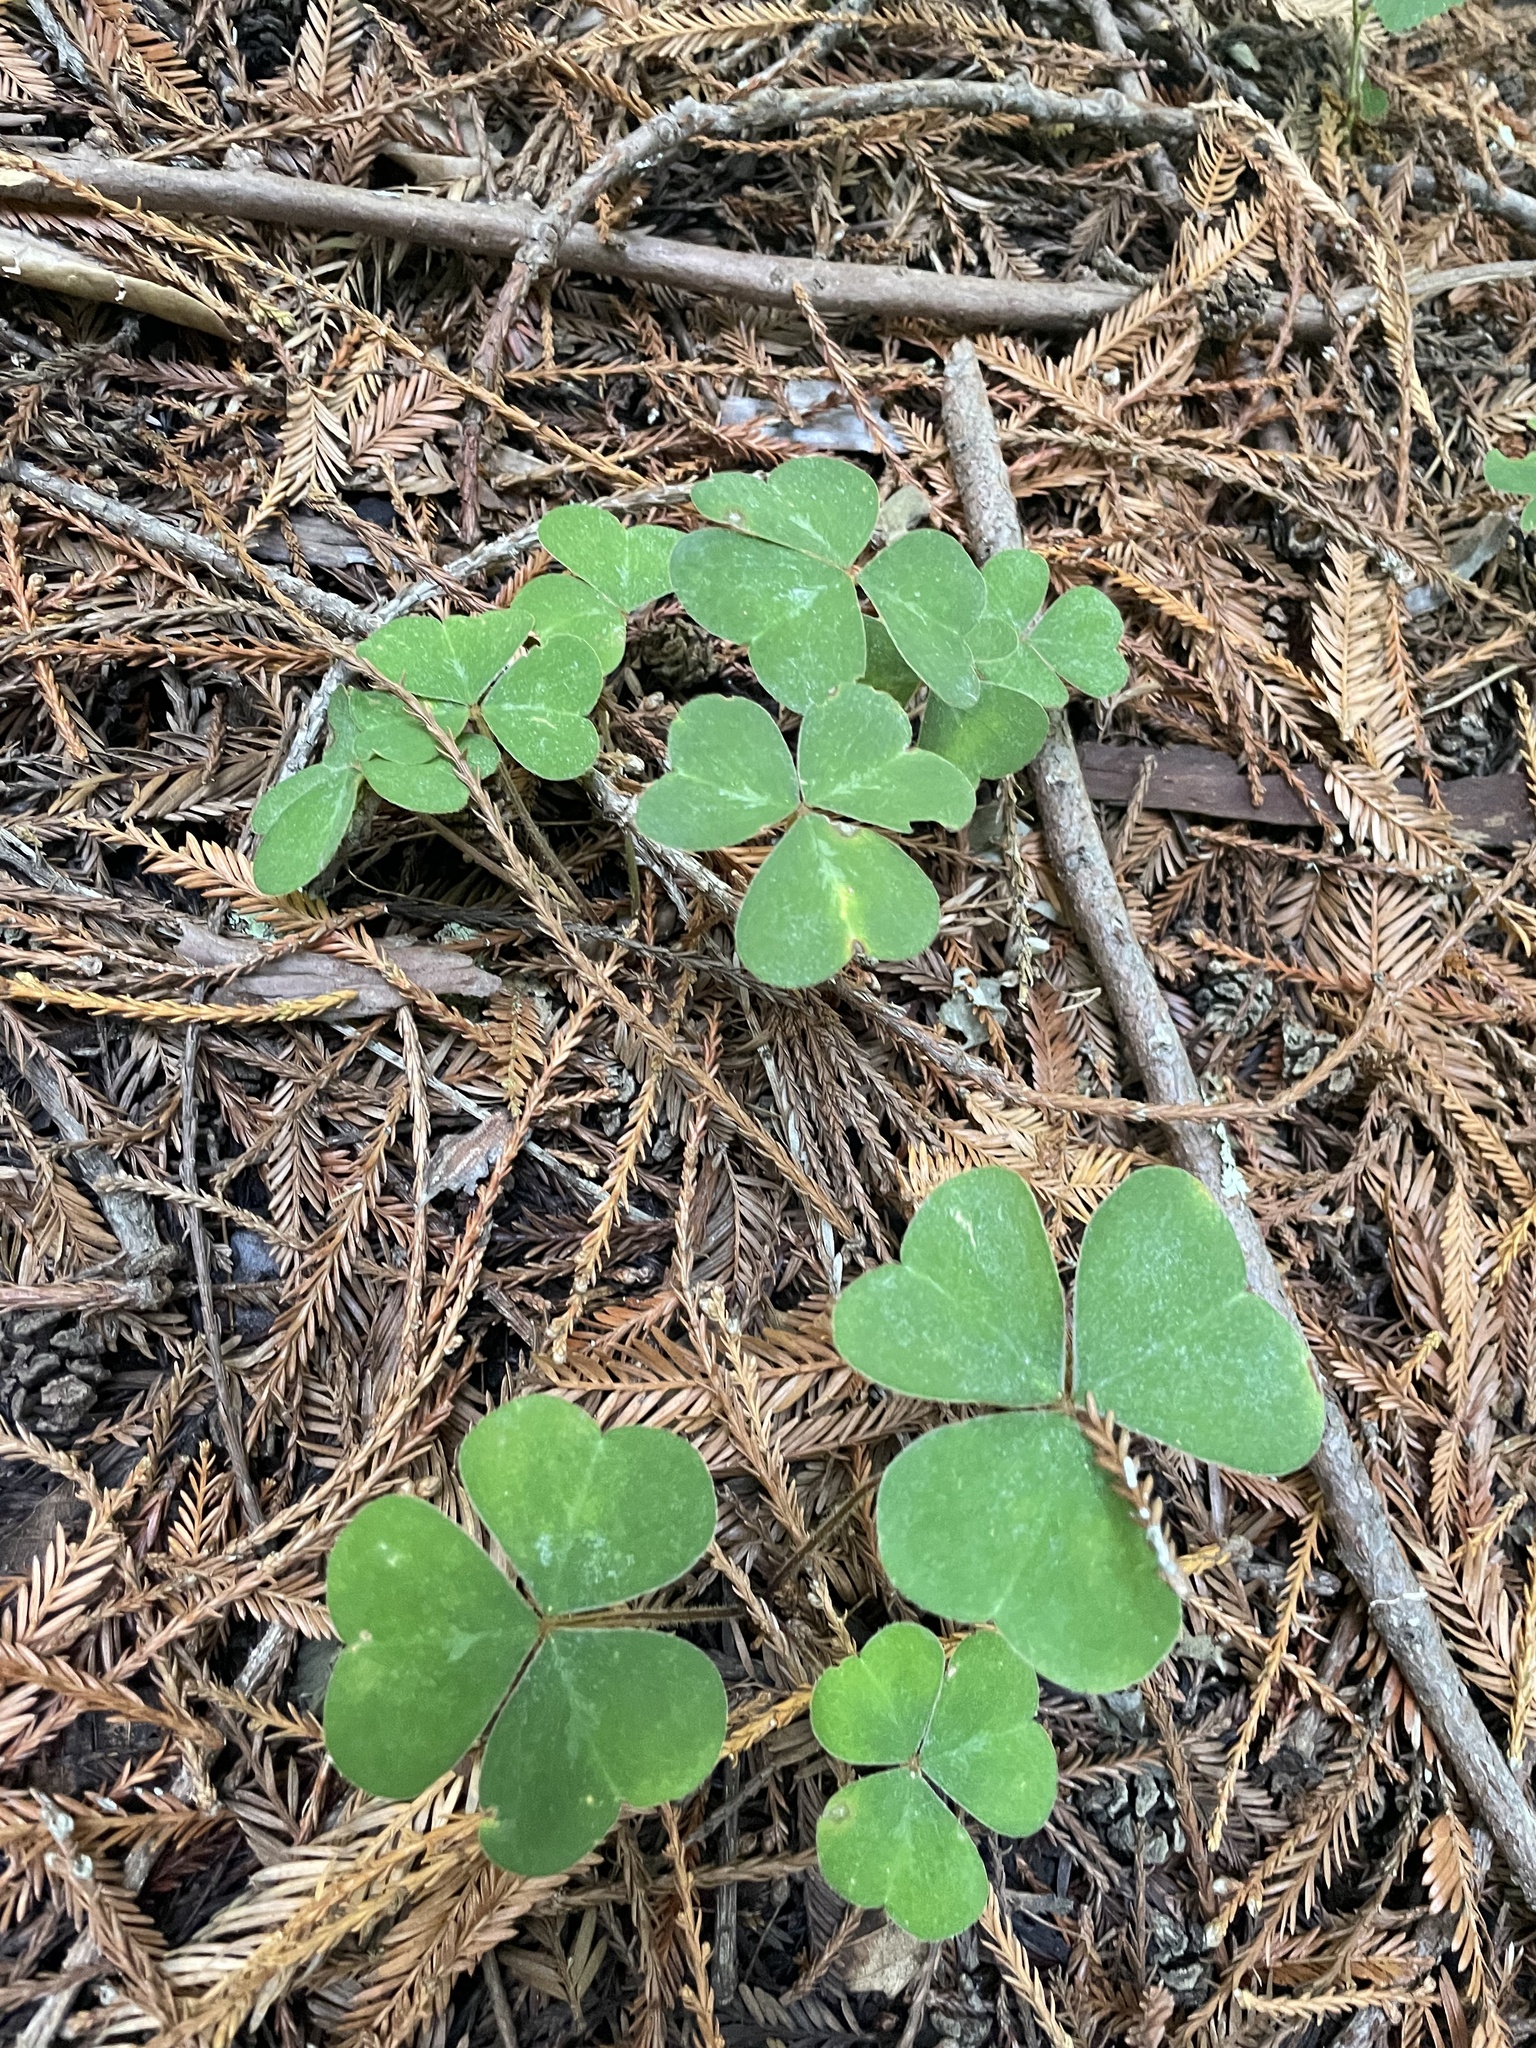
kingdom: Plantae
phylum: Tracheophyta
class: Magnoliopsida
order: Oxalidales
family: Oxalidaceae
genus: Oxalis
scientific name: Oxalis oregana
